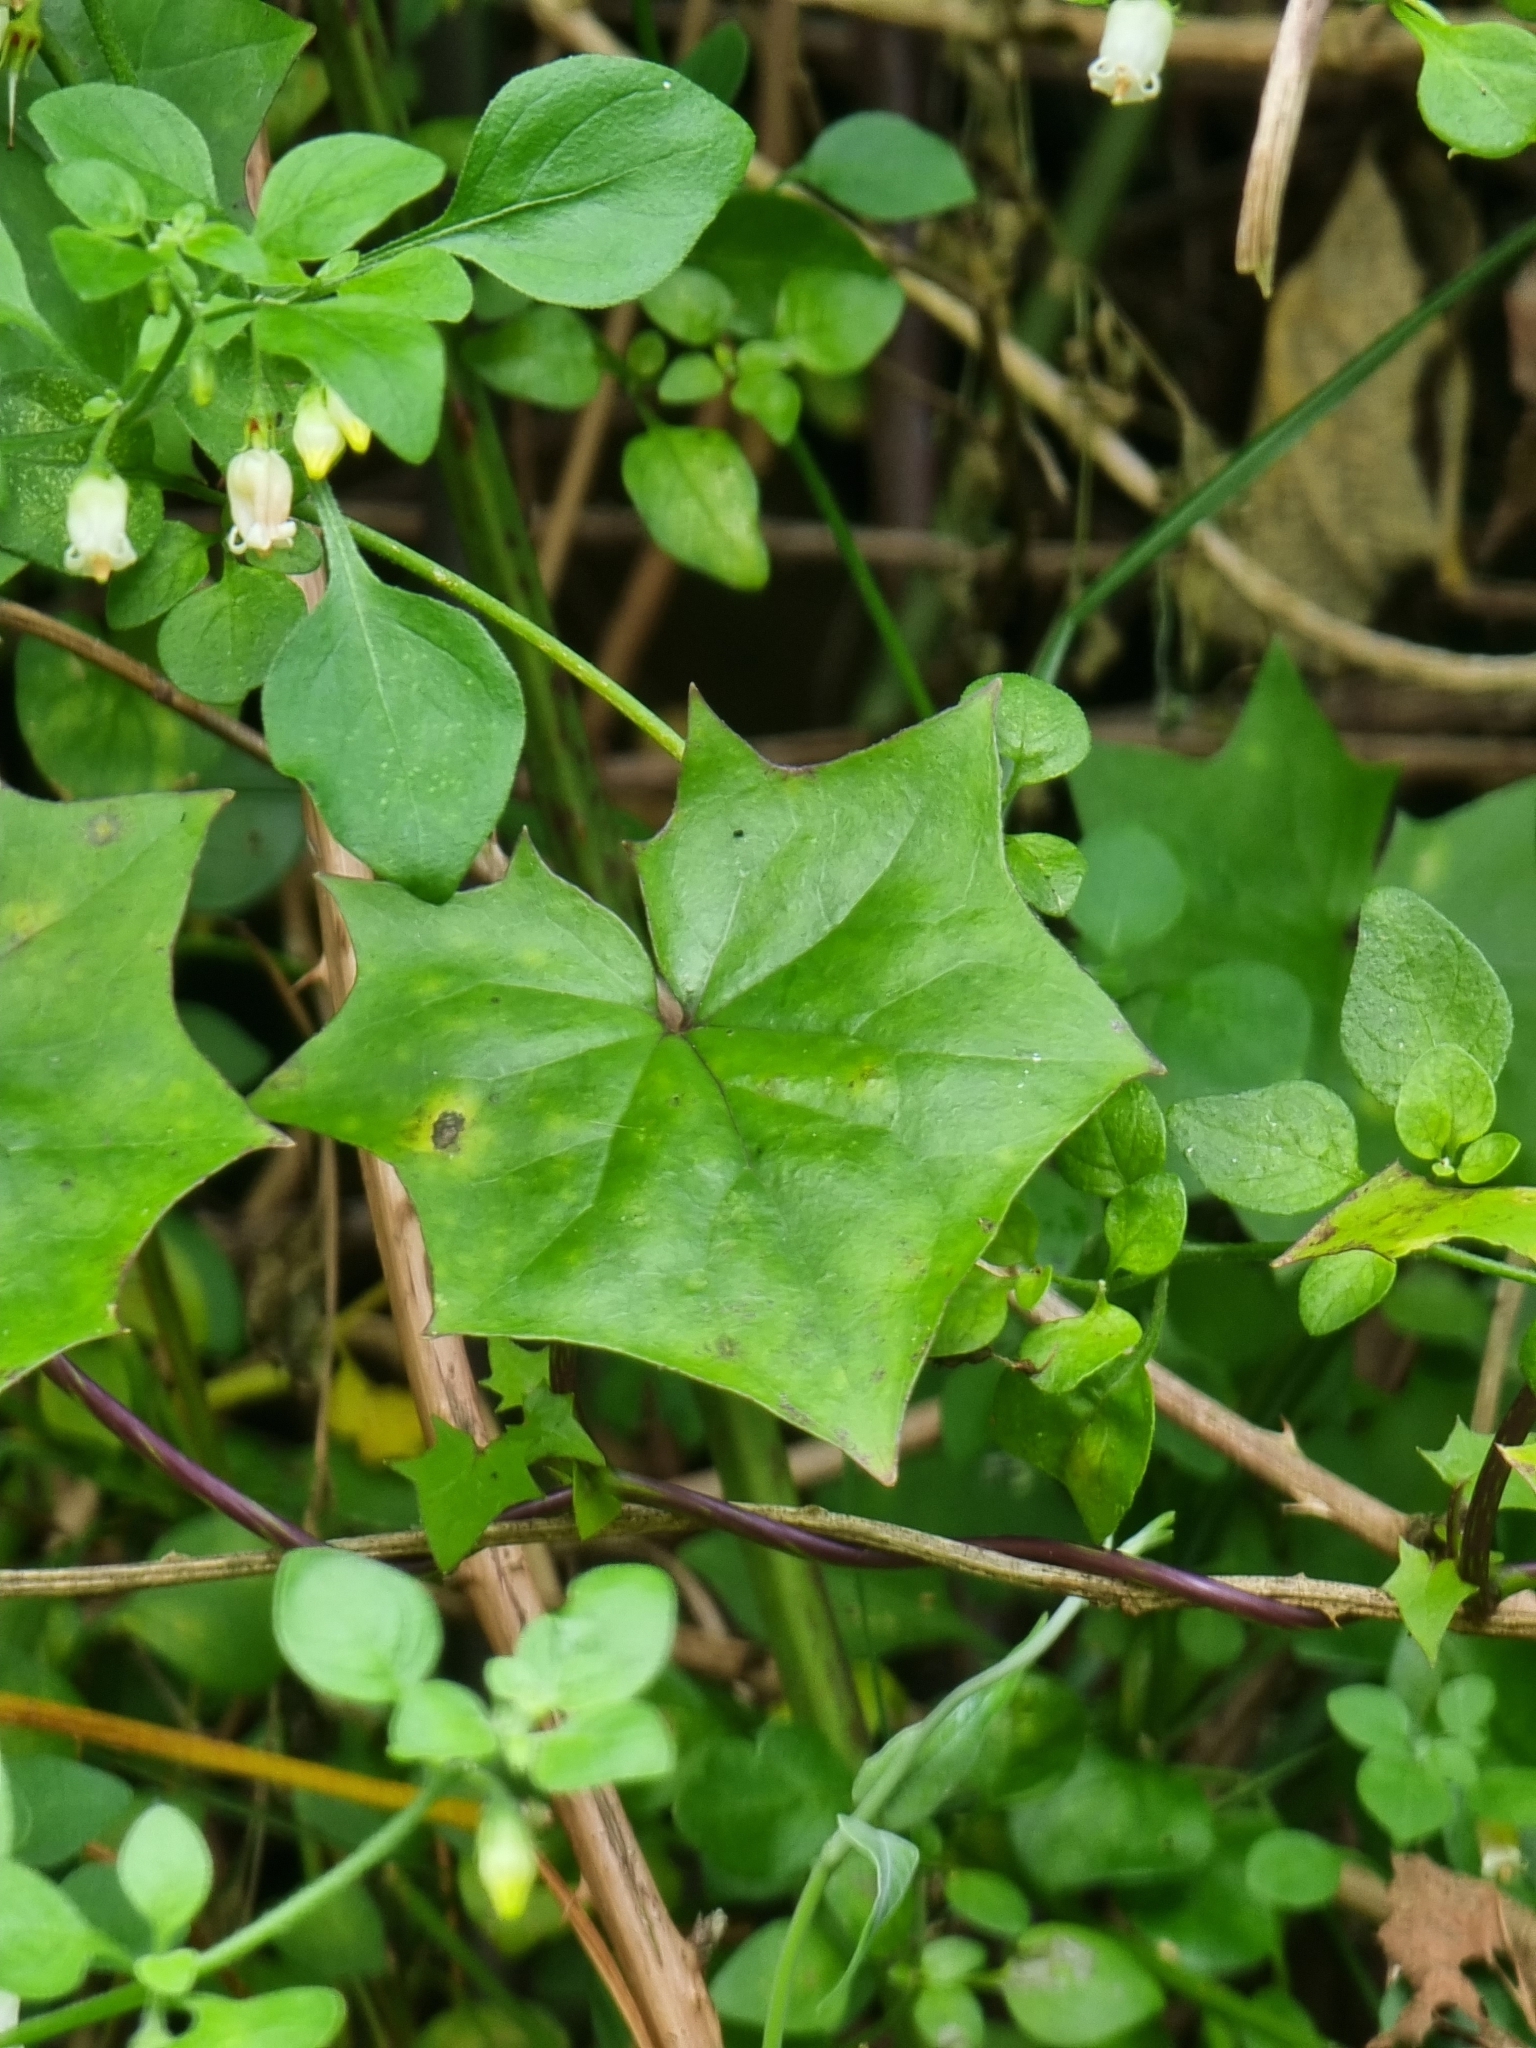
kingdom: Plantae
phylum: Tracheophyta
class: Magnoliopsida
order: Asterales
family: Asteraceae
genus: Delairea
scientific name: Delairea odorata
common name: Cape-ivy
